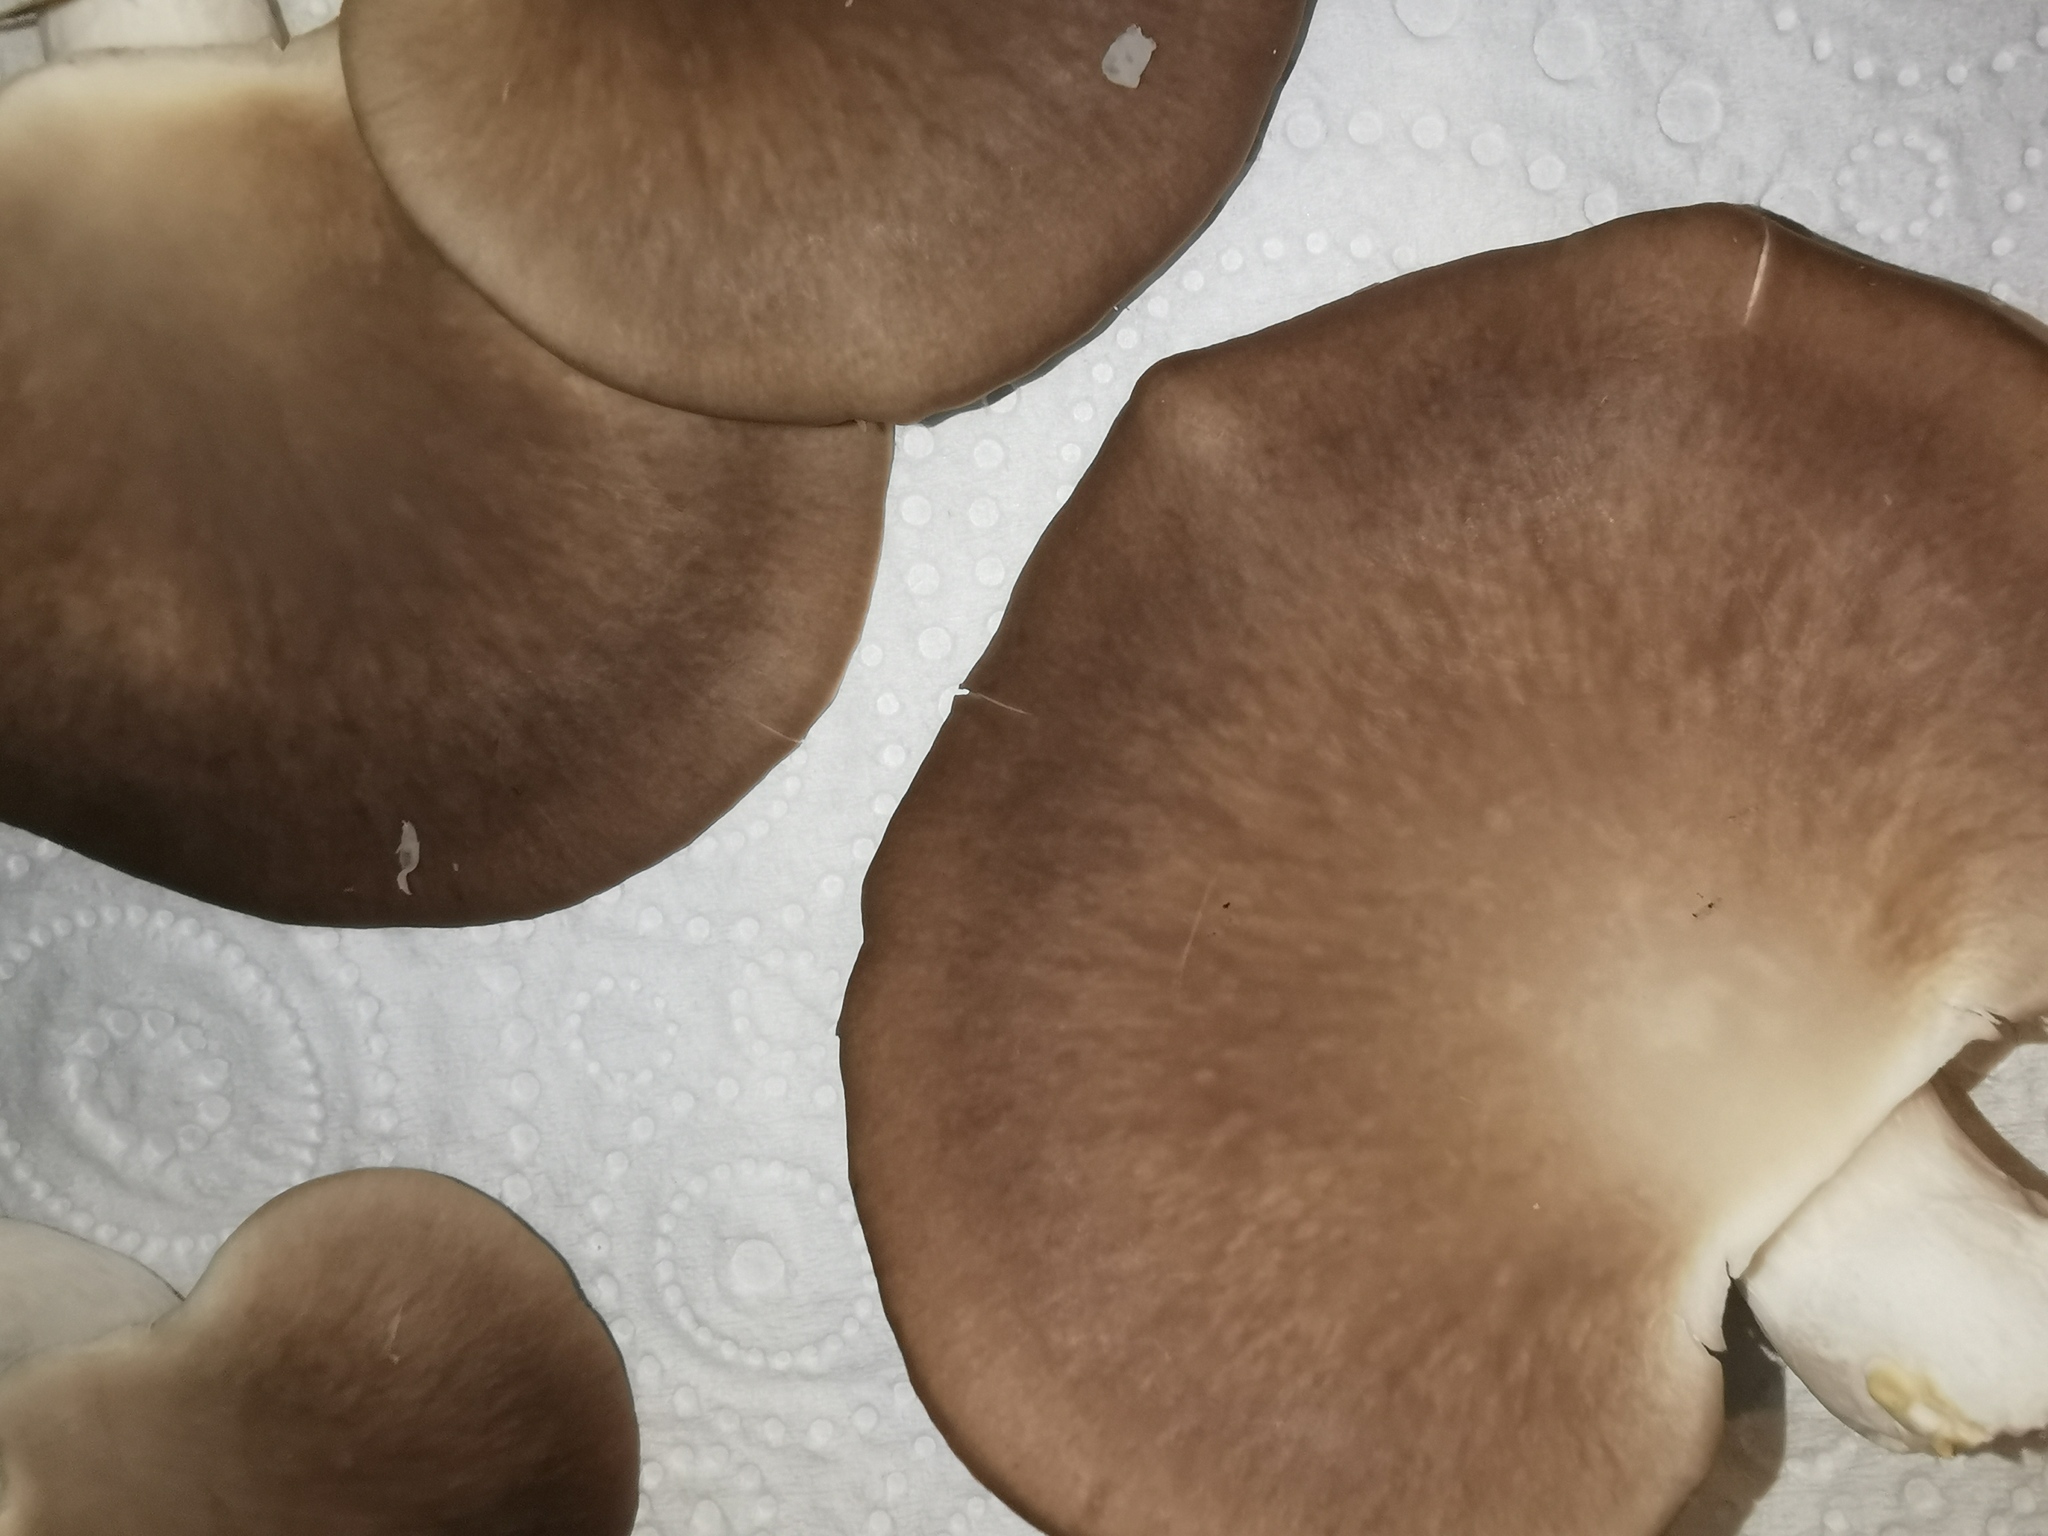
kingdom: Fungi
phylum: Basidiomycota
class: Agaricomycetes
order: Agaricales
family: Pleurotaceae
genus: Pleurotus
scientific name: Pleurotus pulmonarius
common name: Pale oyster
